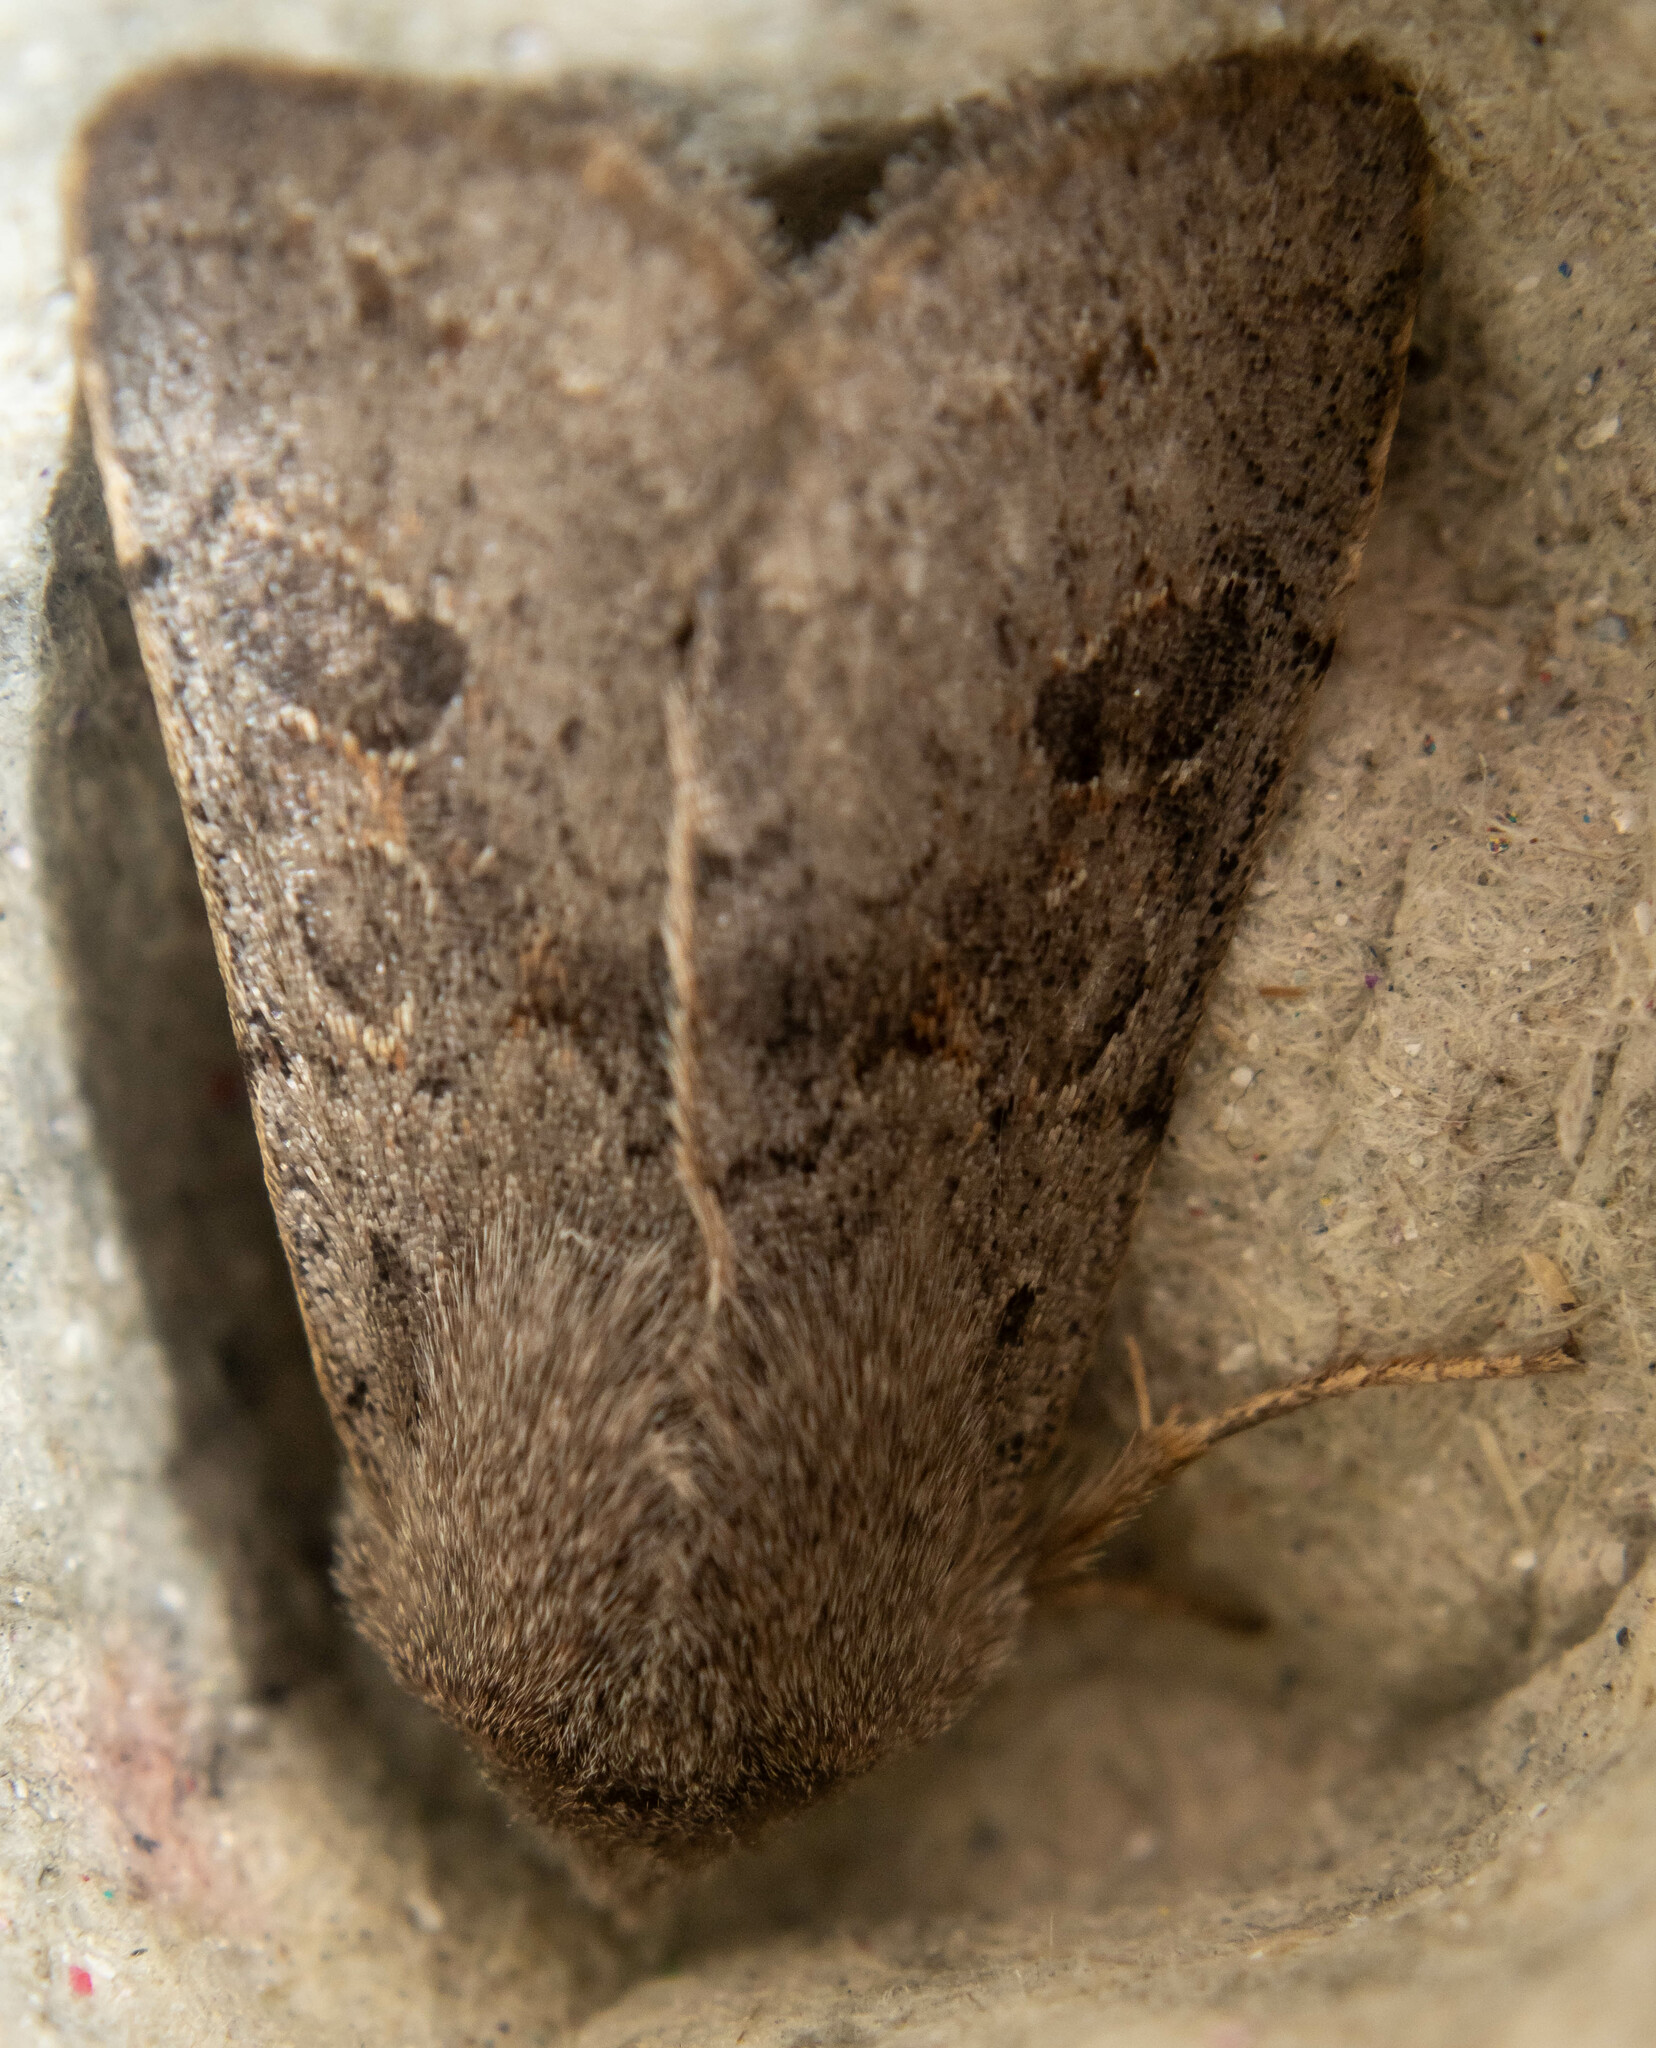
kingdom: Animalia
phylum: Arthropoda
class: Insecta
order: Lepidoptera
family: Noctuidae
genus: Orthosia
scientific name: Orthosia populeti
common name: Lead-coloured drab
